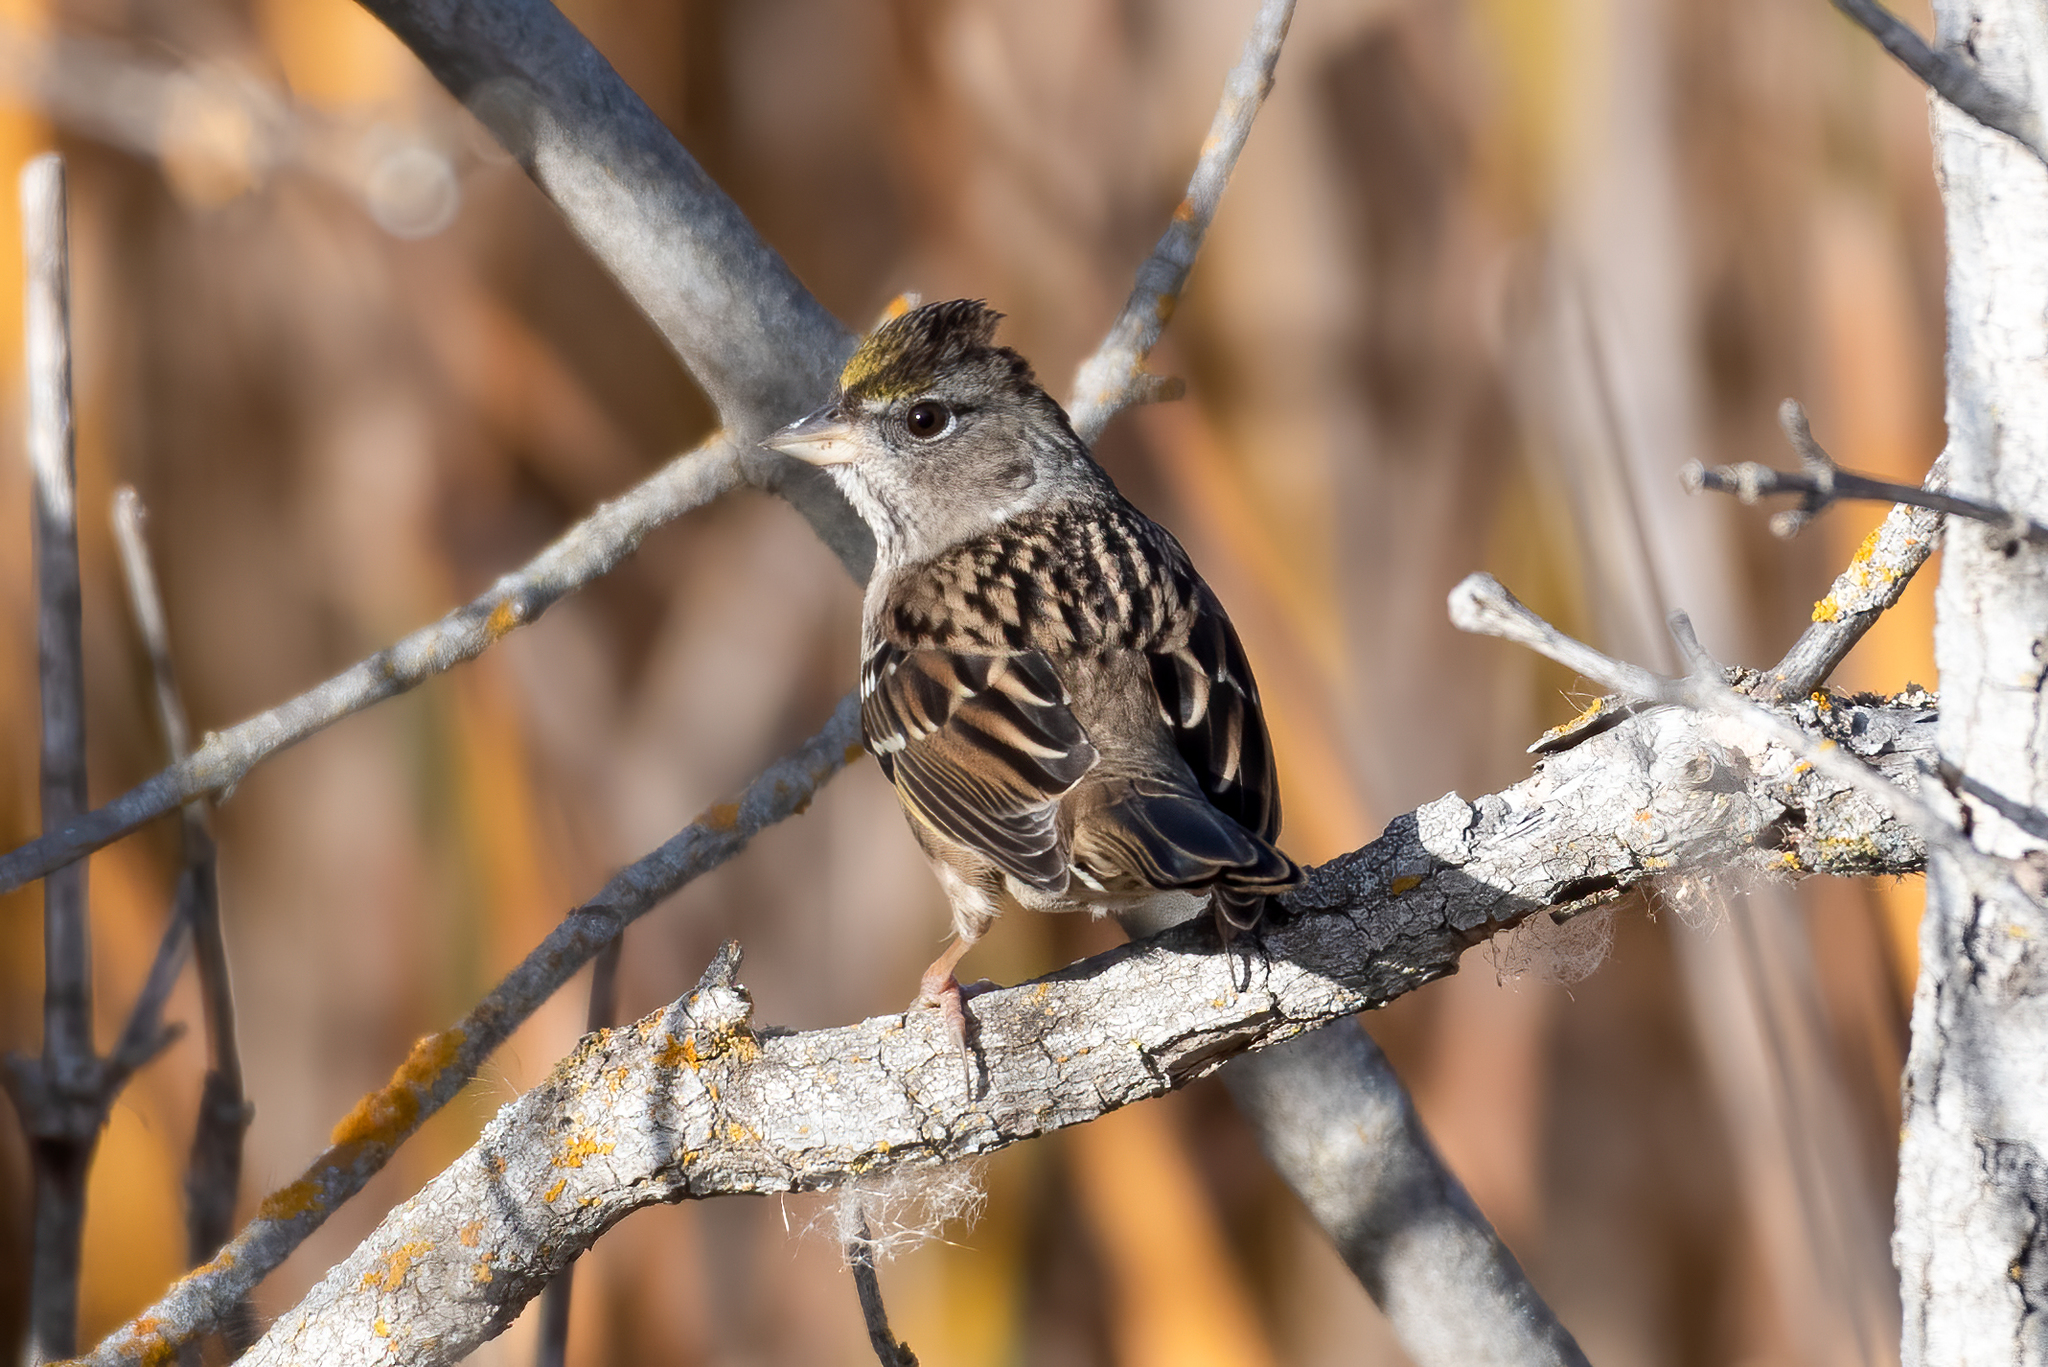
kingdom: Animalia
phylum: Chordata
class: Aves
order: Passeriformes
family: Passerellidae
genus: Zonotrichia
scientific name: Zonotrichia atricapilla
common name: Golden-crowned sparrow
